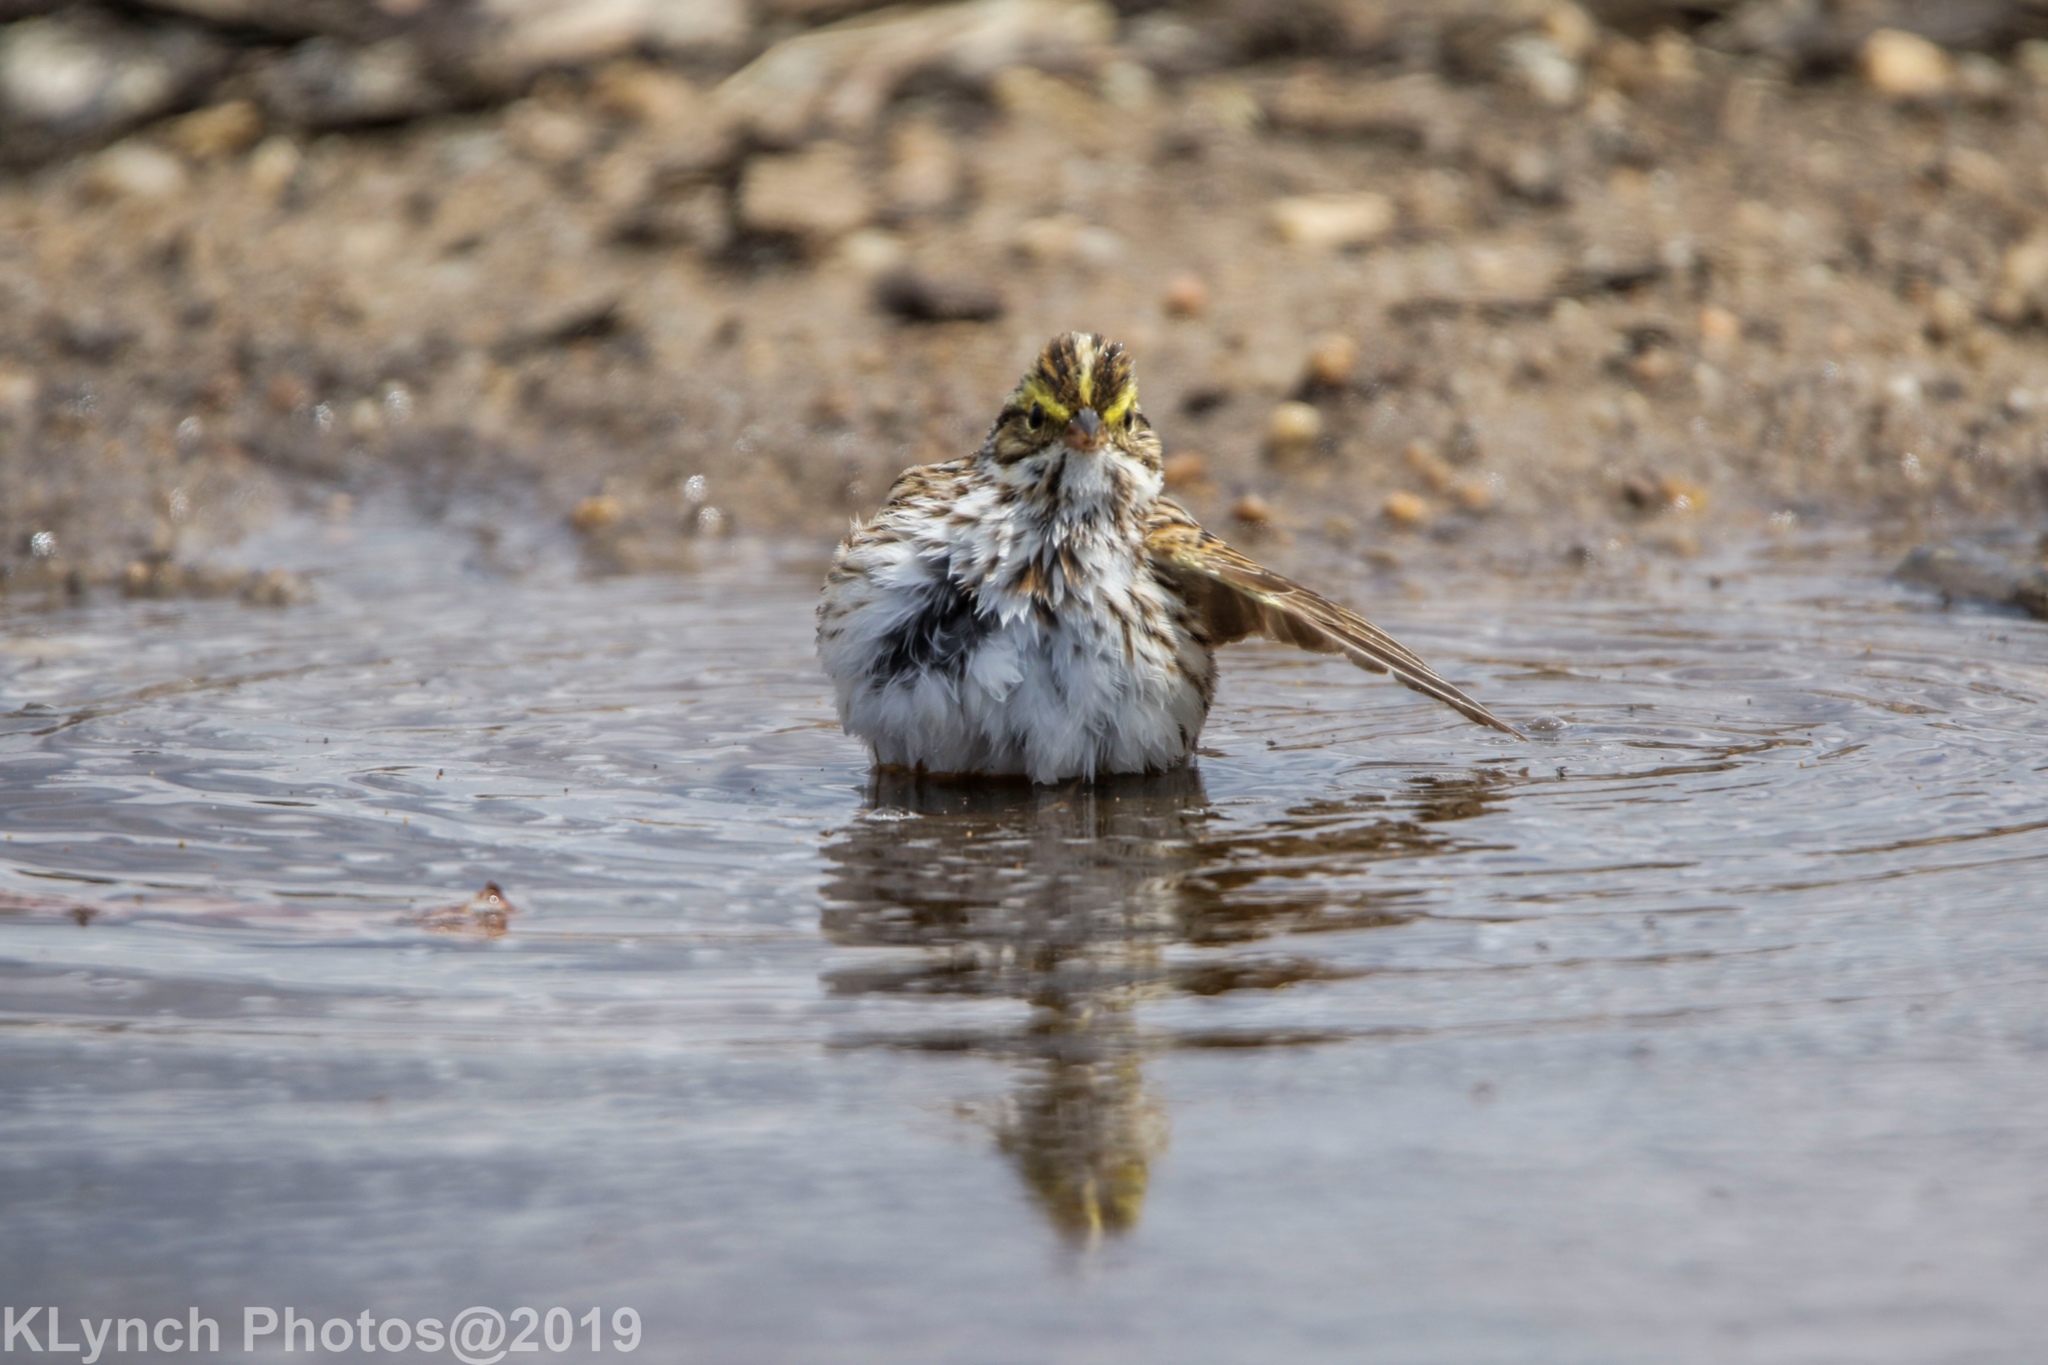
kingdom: Animalia
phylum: Chordata
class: Aves
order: Passeriformes
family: Passerellidae
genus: Passerculus
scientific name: Passerculus sandwichensis
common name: Savannah sparrow
